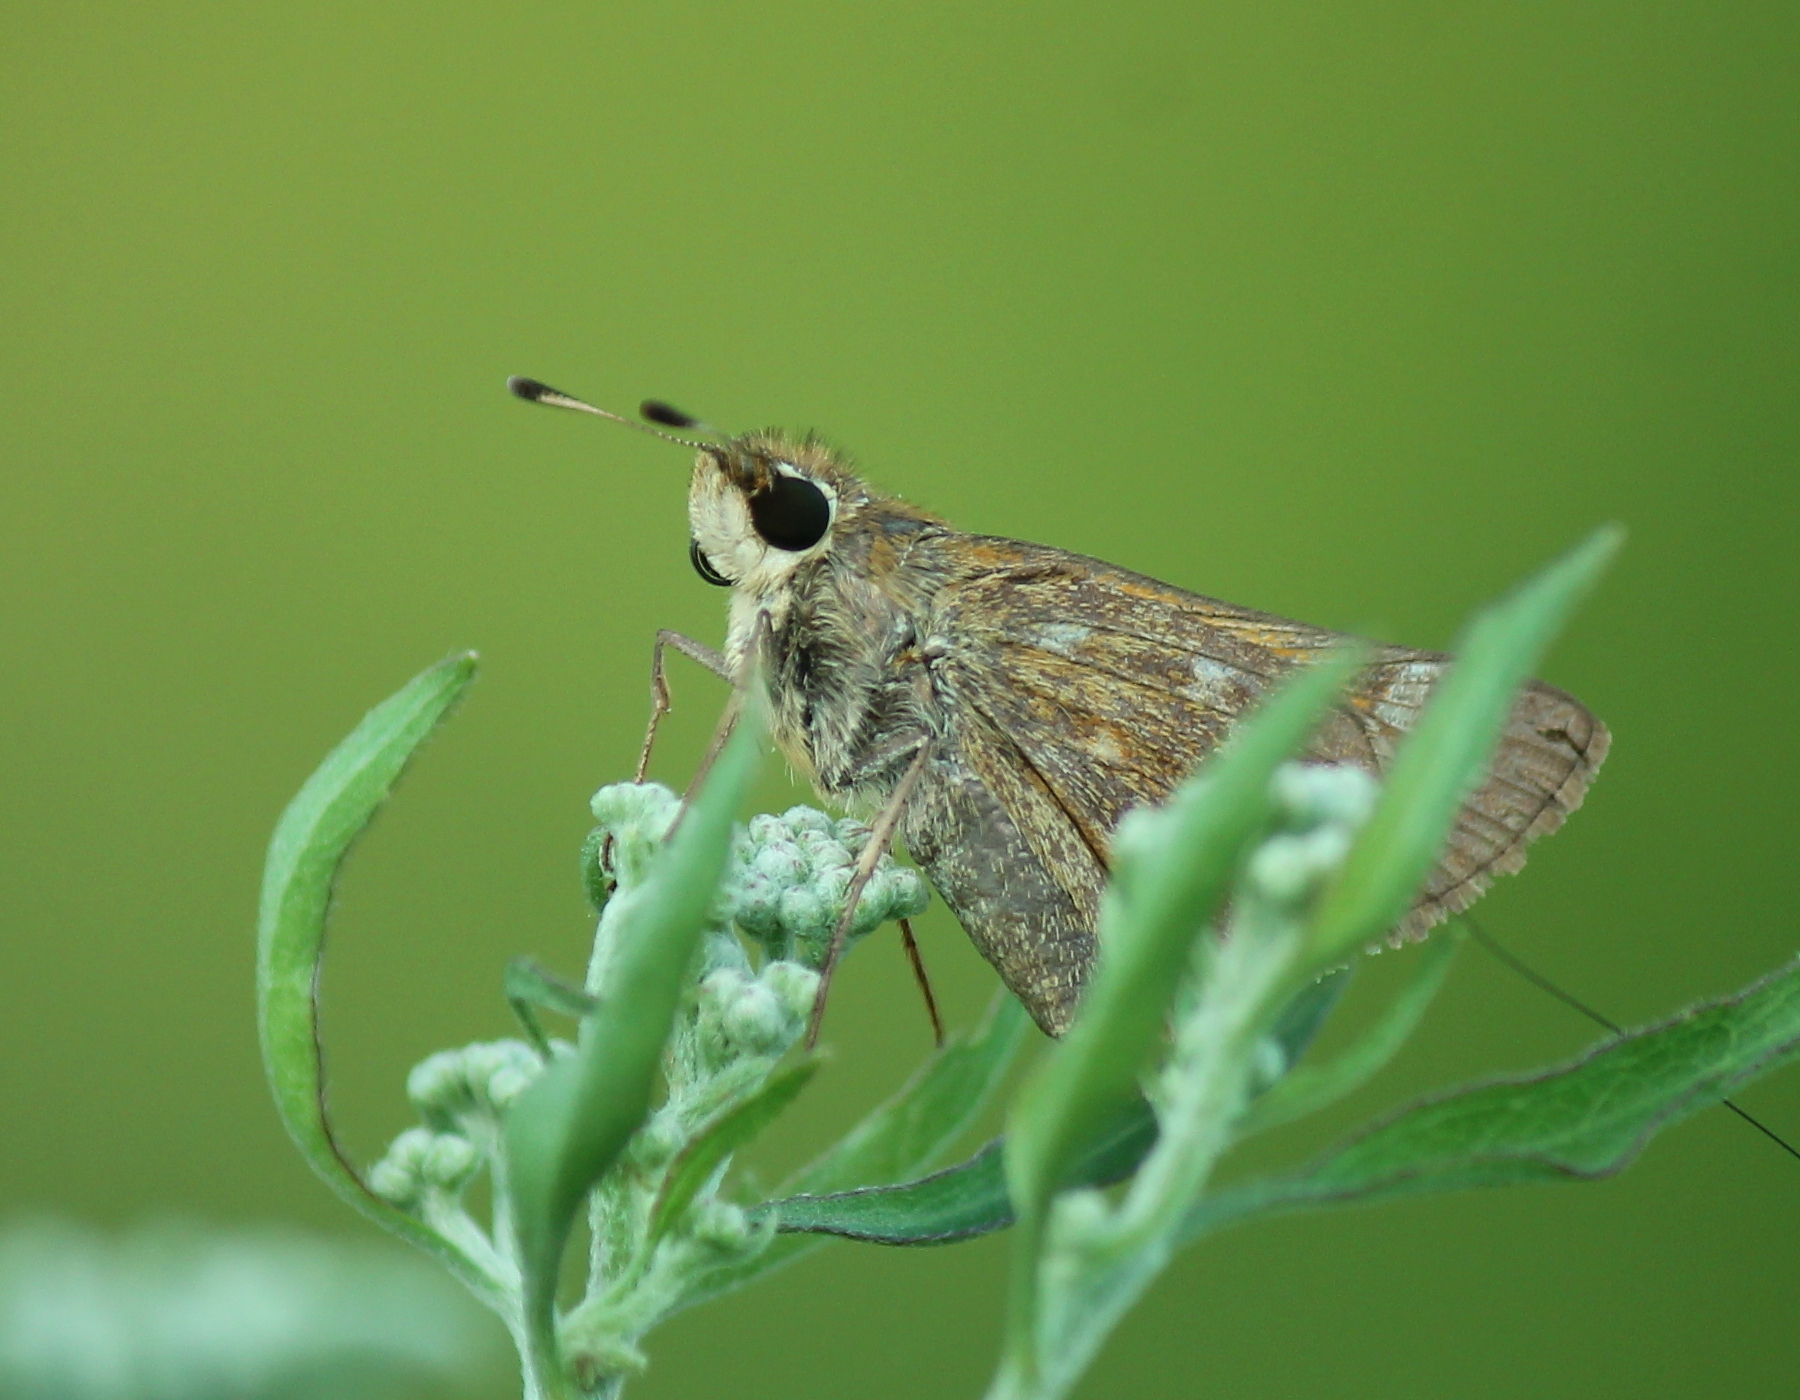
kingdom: Animalia
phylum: Arthropoda
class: Insecta
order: Lepidoptera
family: Hesperiidae
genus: Atalopedes
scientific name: Atalopedes
